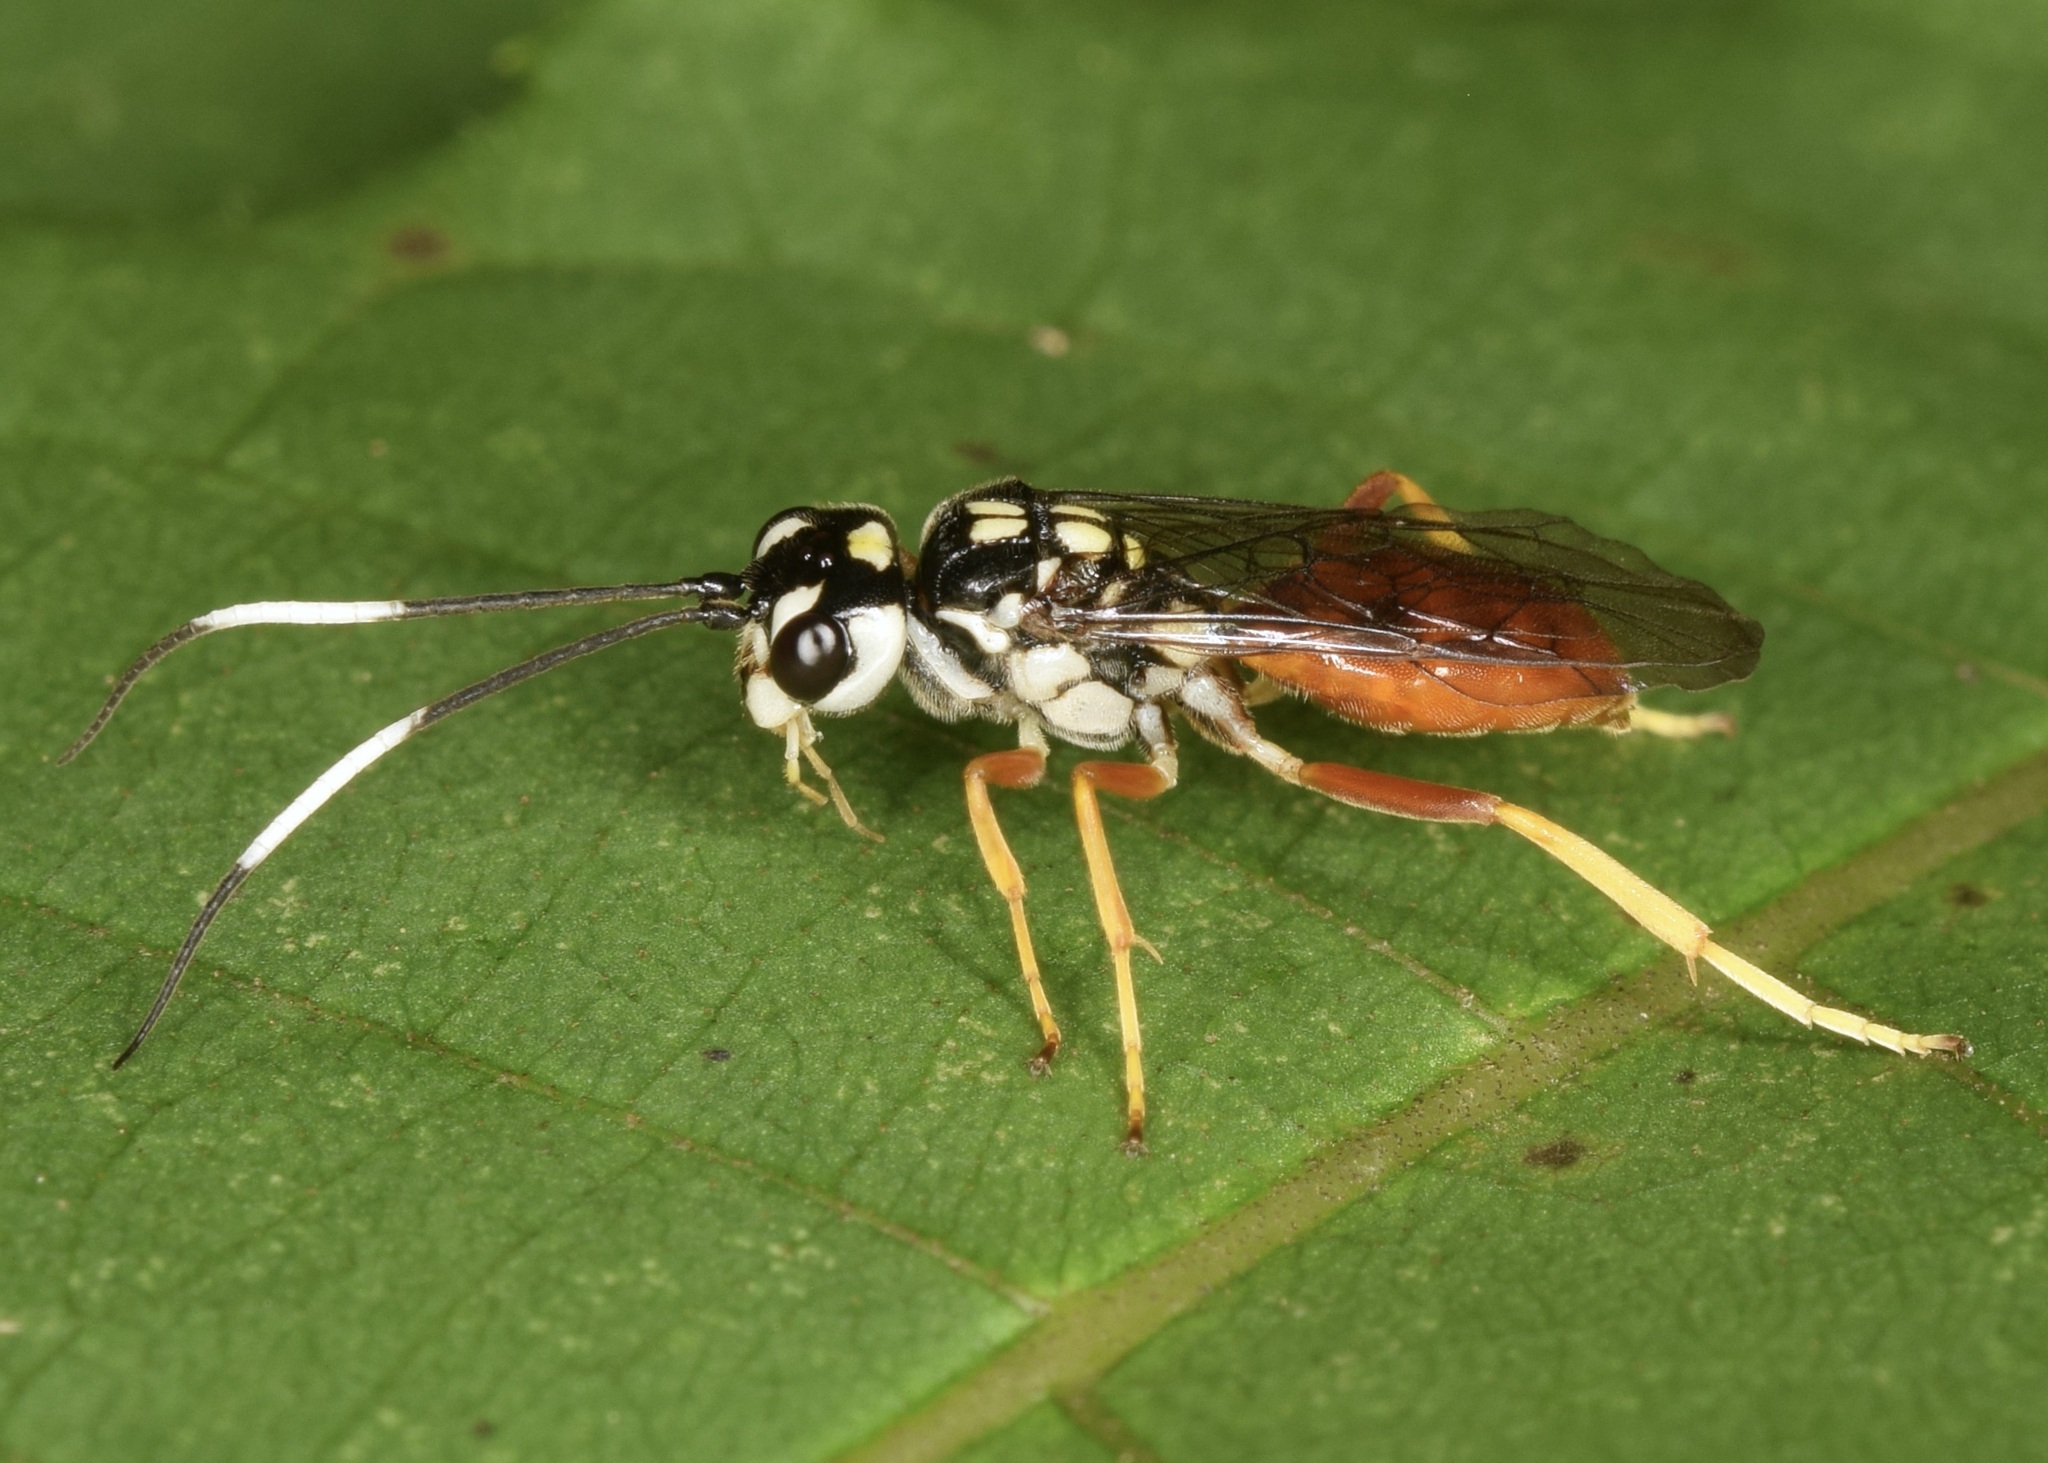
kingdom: Animalia
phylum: Arthropoda
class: Insecta
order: Hymenoptera
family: Trigonalidae
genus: Orthogonalys
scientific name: Orthogonalys pulchella
